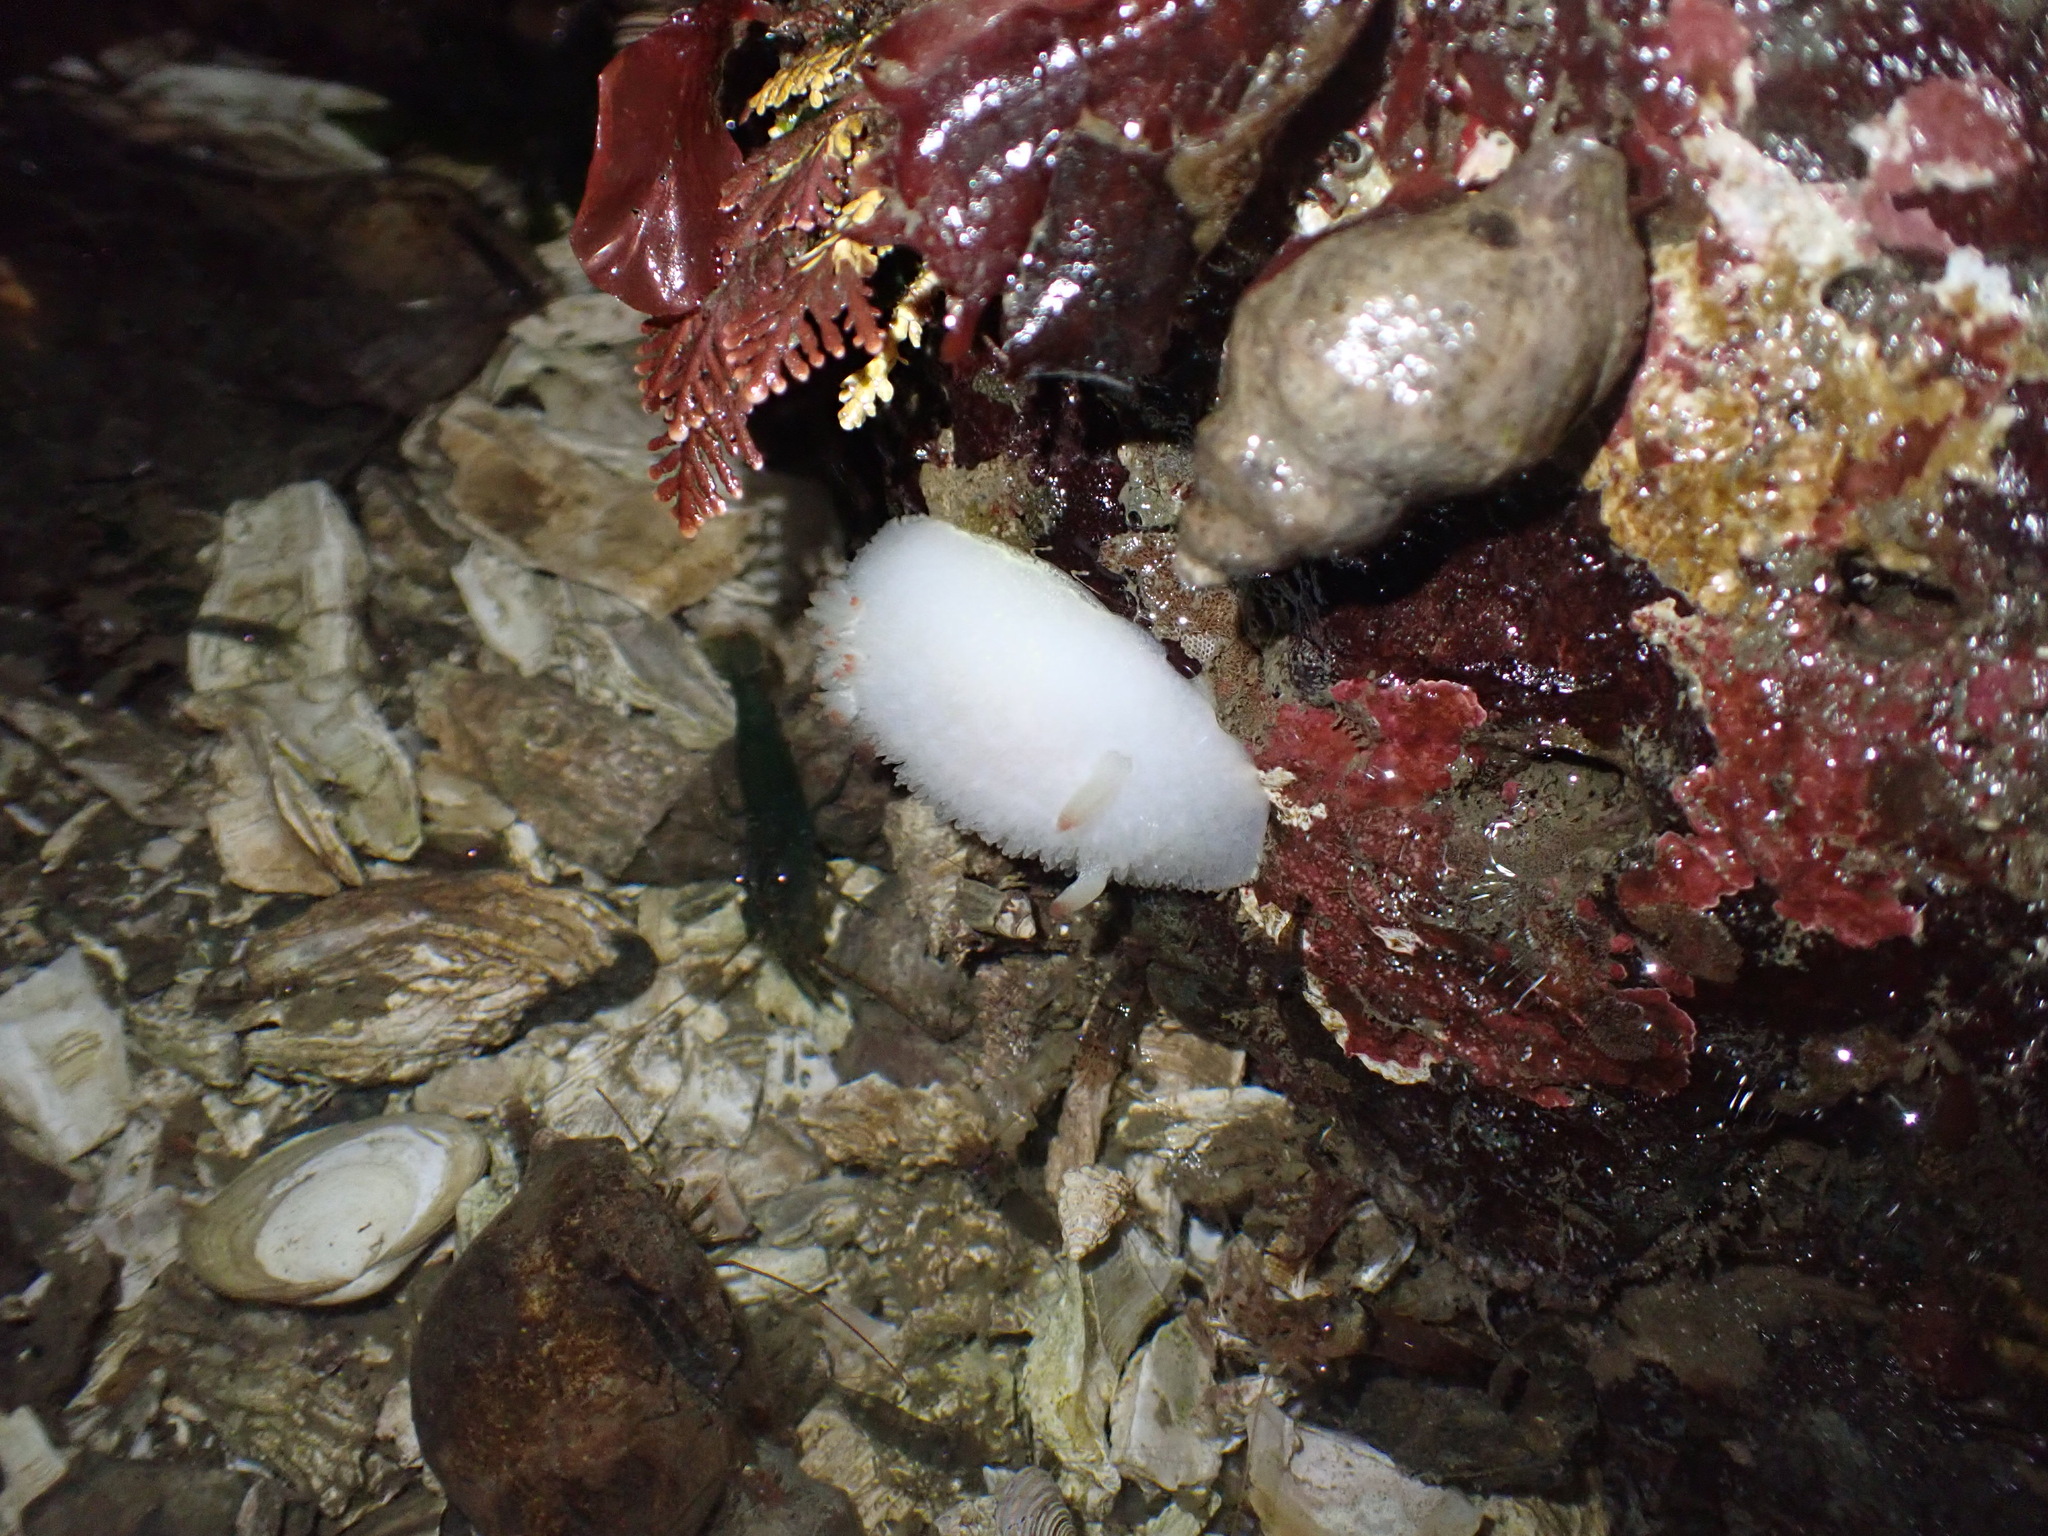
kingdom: Animalia
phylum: Mollusca
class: Gastropoda
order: Nudibranchia
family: Onchidorididae
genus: Acanthodoris
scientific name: Acanthodoris nanaimoensis
